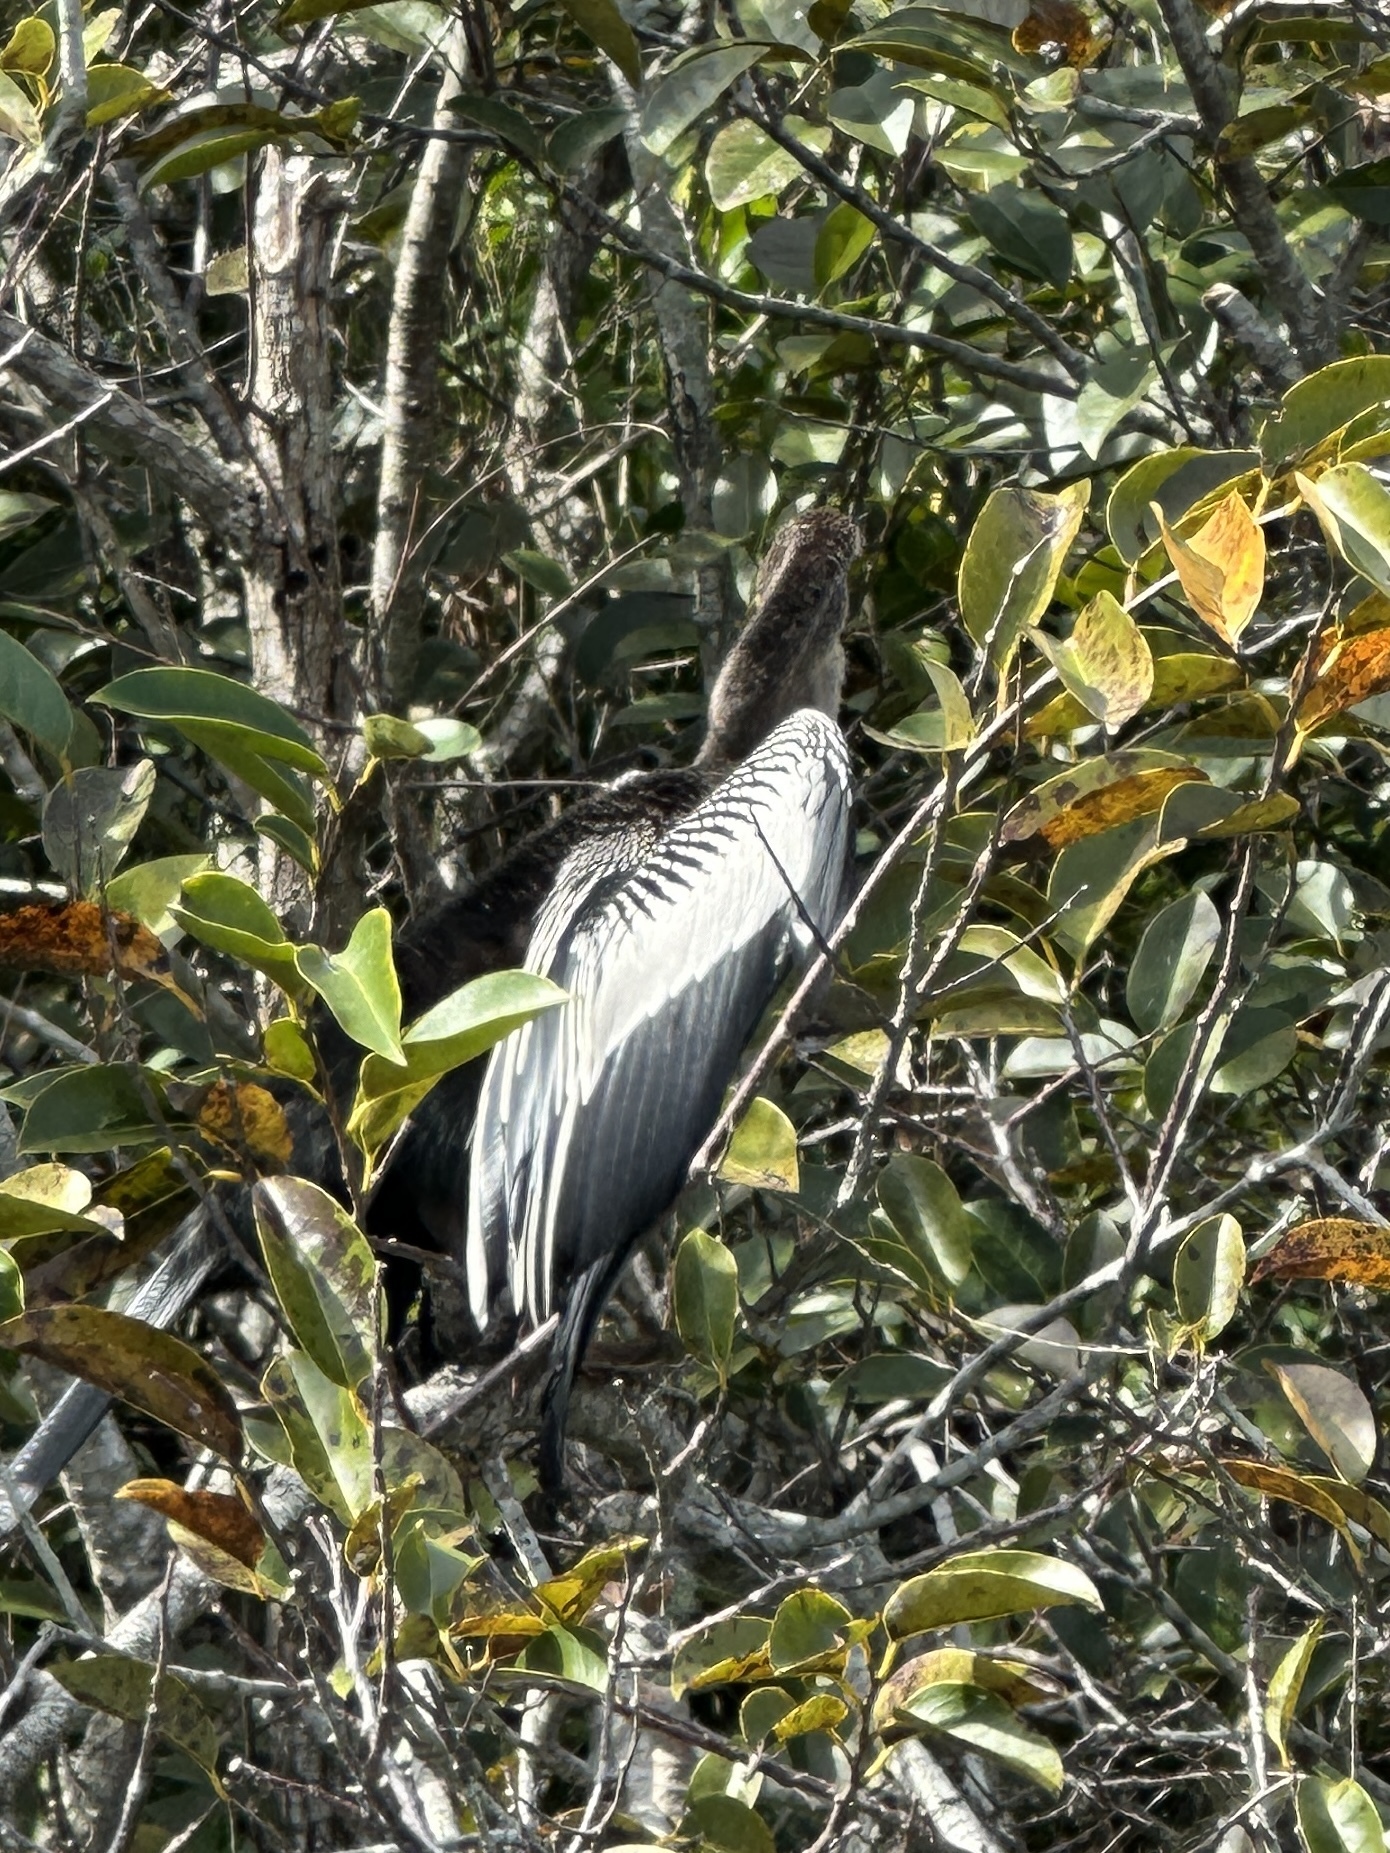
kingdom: Animalia
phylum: Chordata
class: Aves
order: Suliformes
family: Anhingidae
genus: Anhinga
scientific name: Anhinga anhinga
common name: Anhinga
